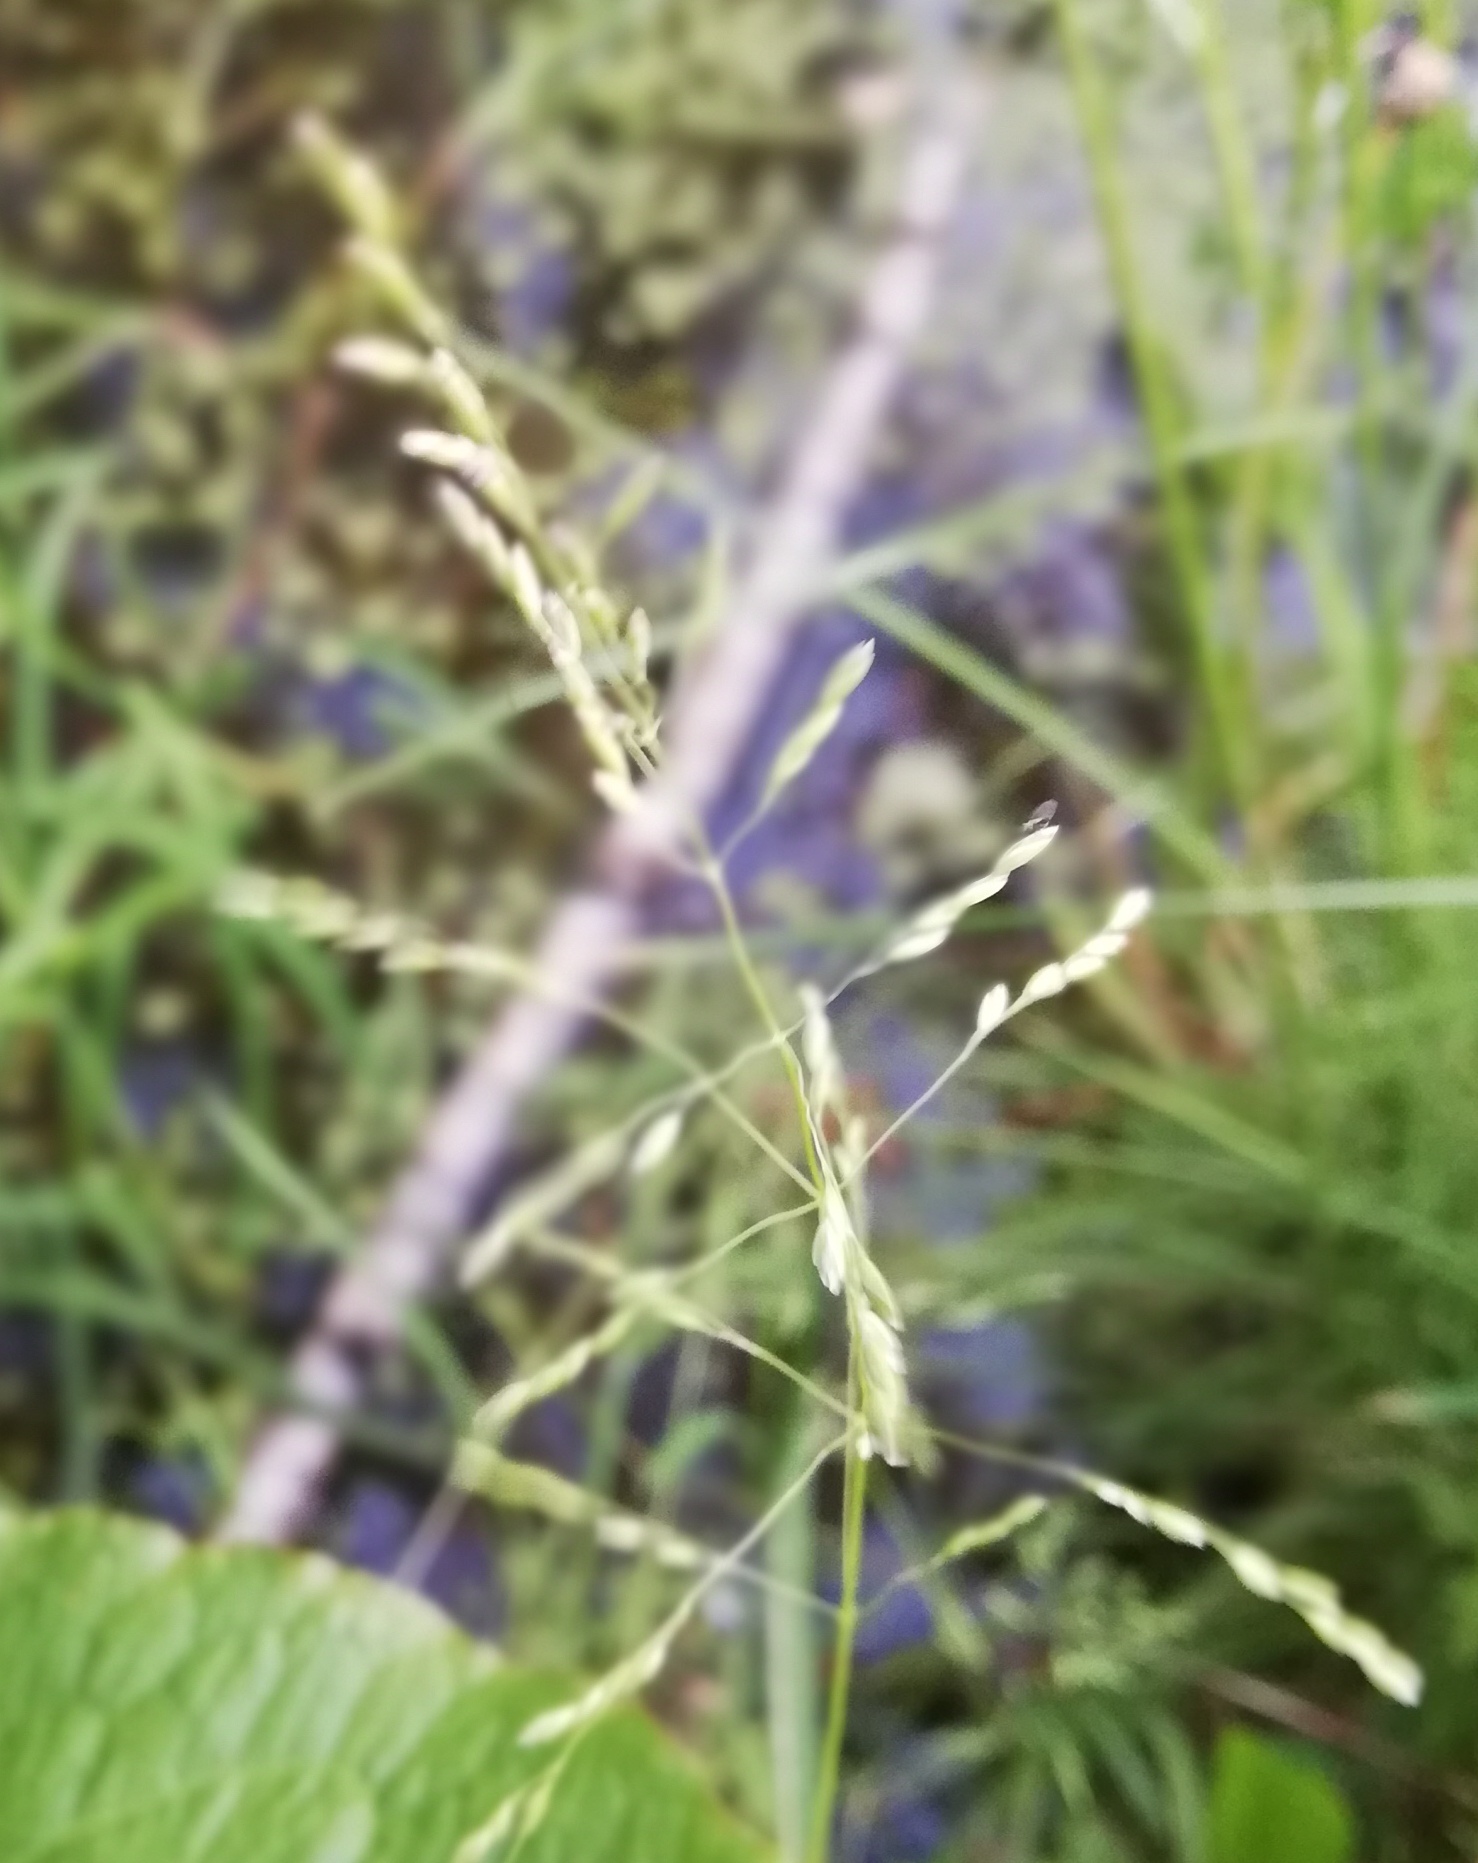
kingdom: Plantae
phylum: Tracheophyta
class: Liliopsida
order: Poales
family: Poaceae
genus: Leersia
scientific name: Leersia oryzoides
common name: Cut-grass
